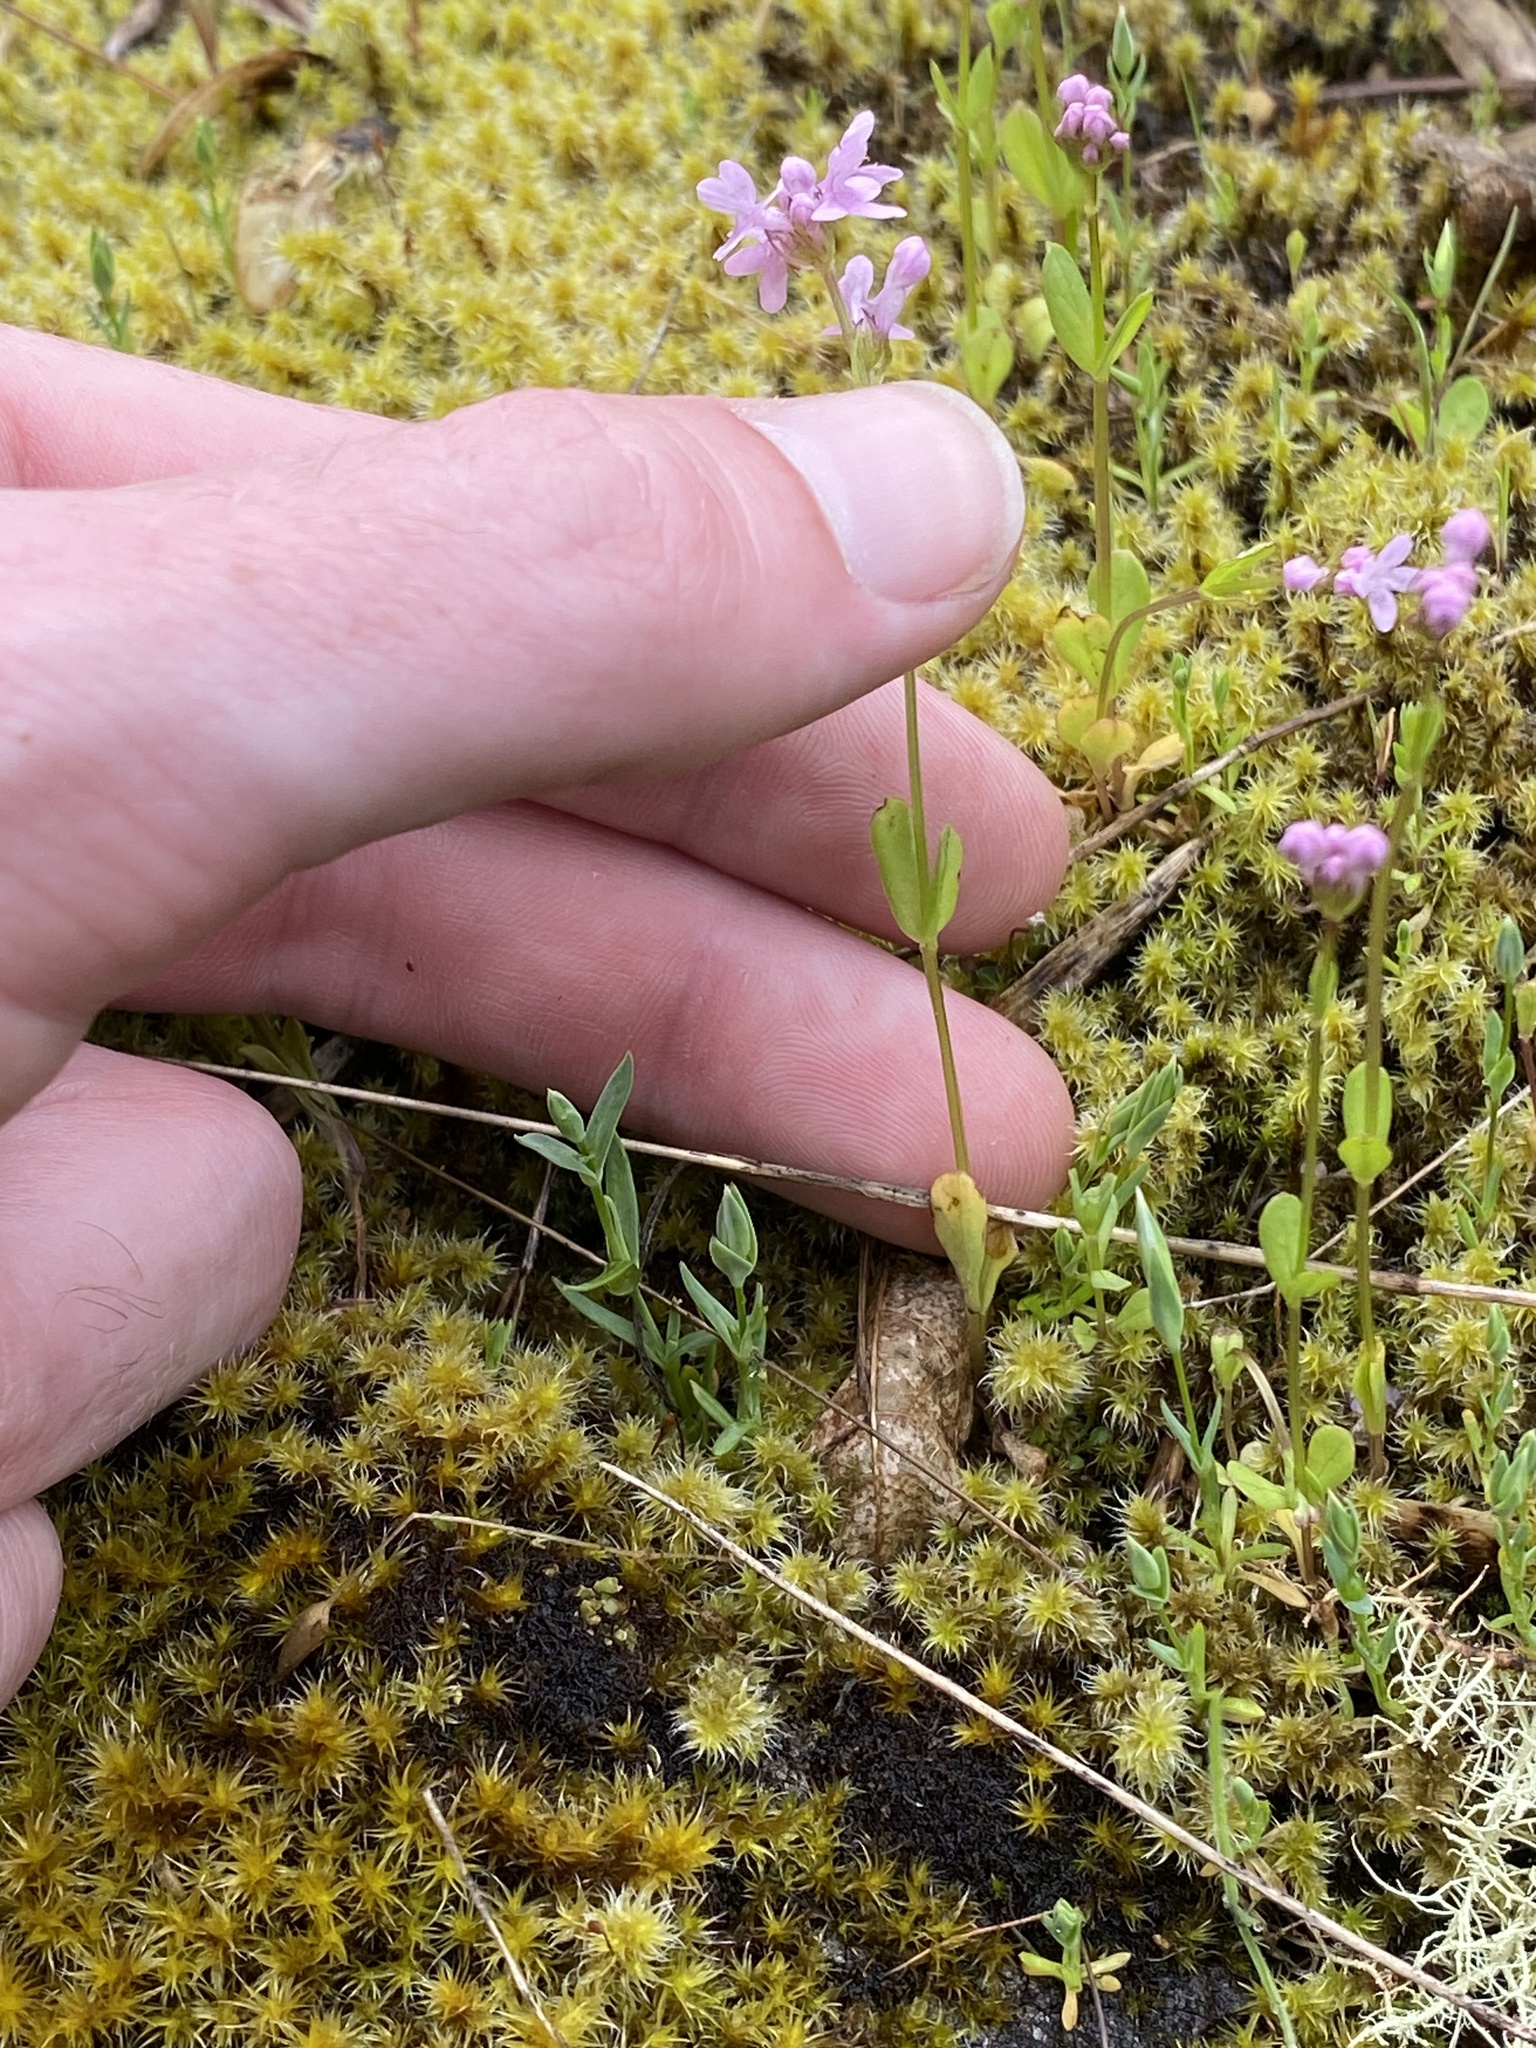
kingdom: Plantae
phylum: Tracheophyta
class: Magnoliopsida
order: Dipsacales
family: Caprifoliaceae
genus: Plectritis
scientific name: Plectritis congesta
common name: Pink plectritis
